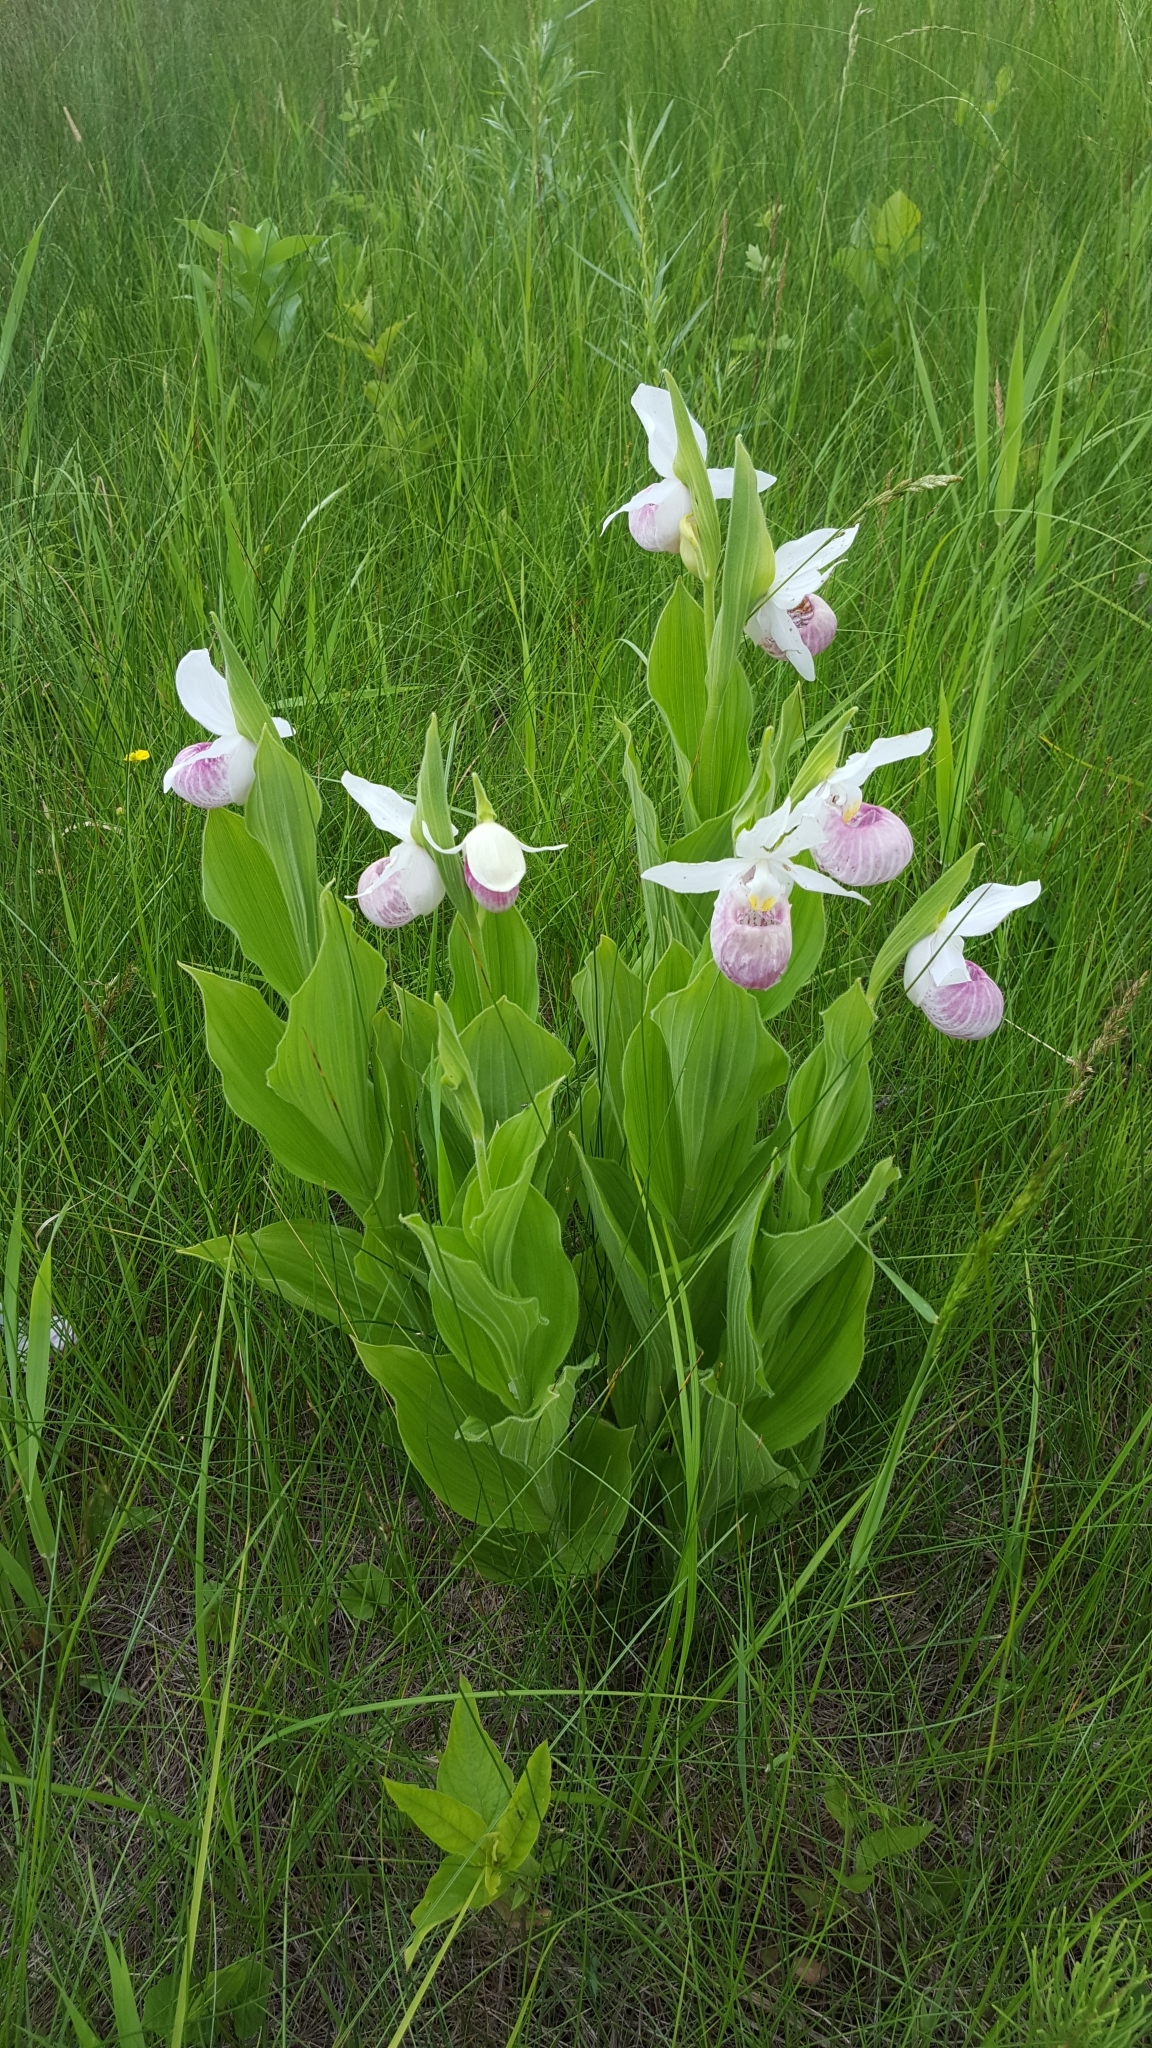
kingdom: Plantae
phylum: Tracheophyta
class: Liliopsida
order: Asparagales
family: Orchidaceae
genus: Cypripedium
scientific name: Cypripedium reginae
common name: Queen lady's-slipper
